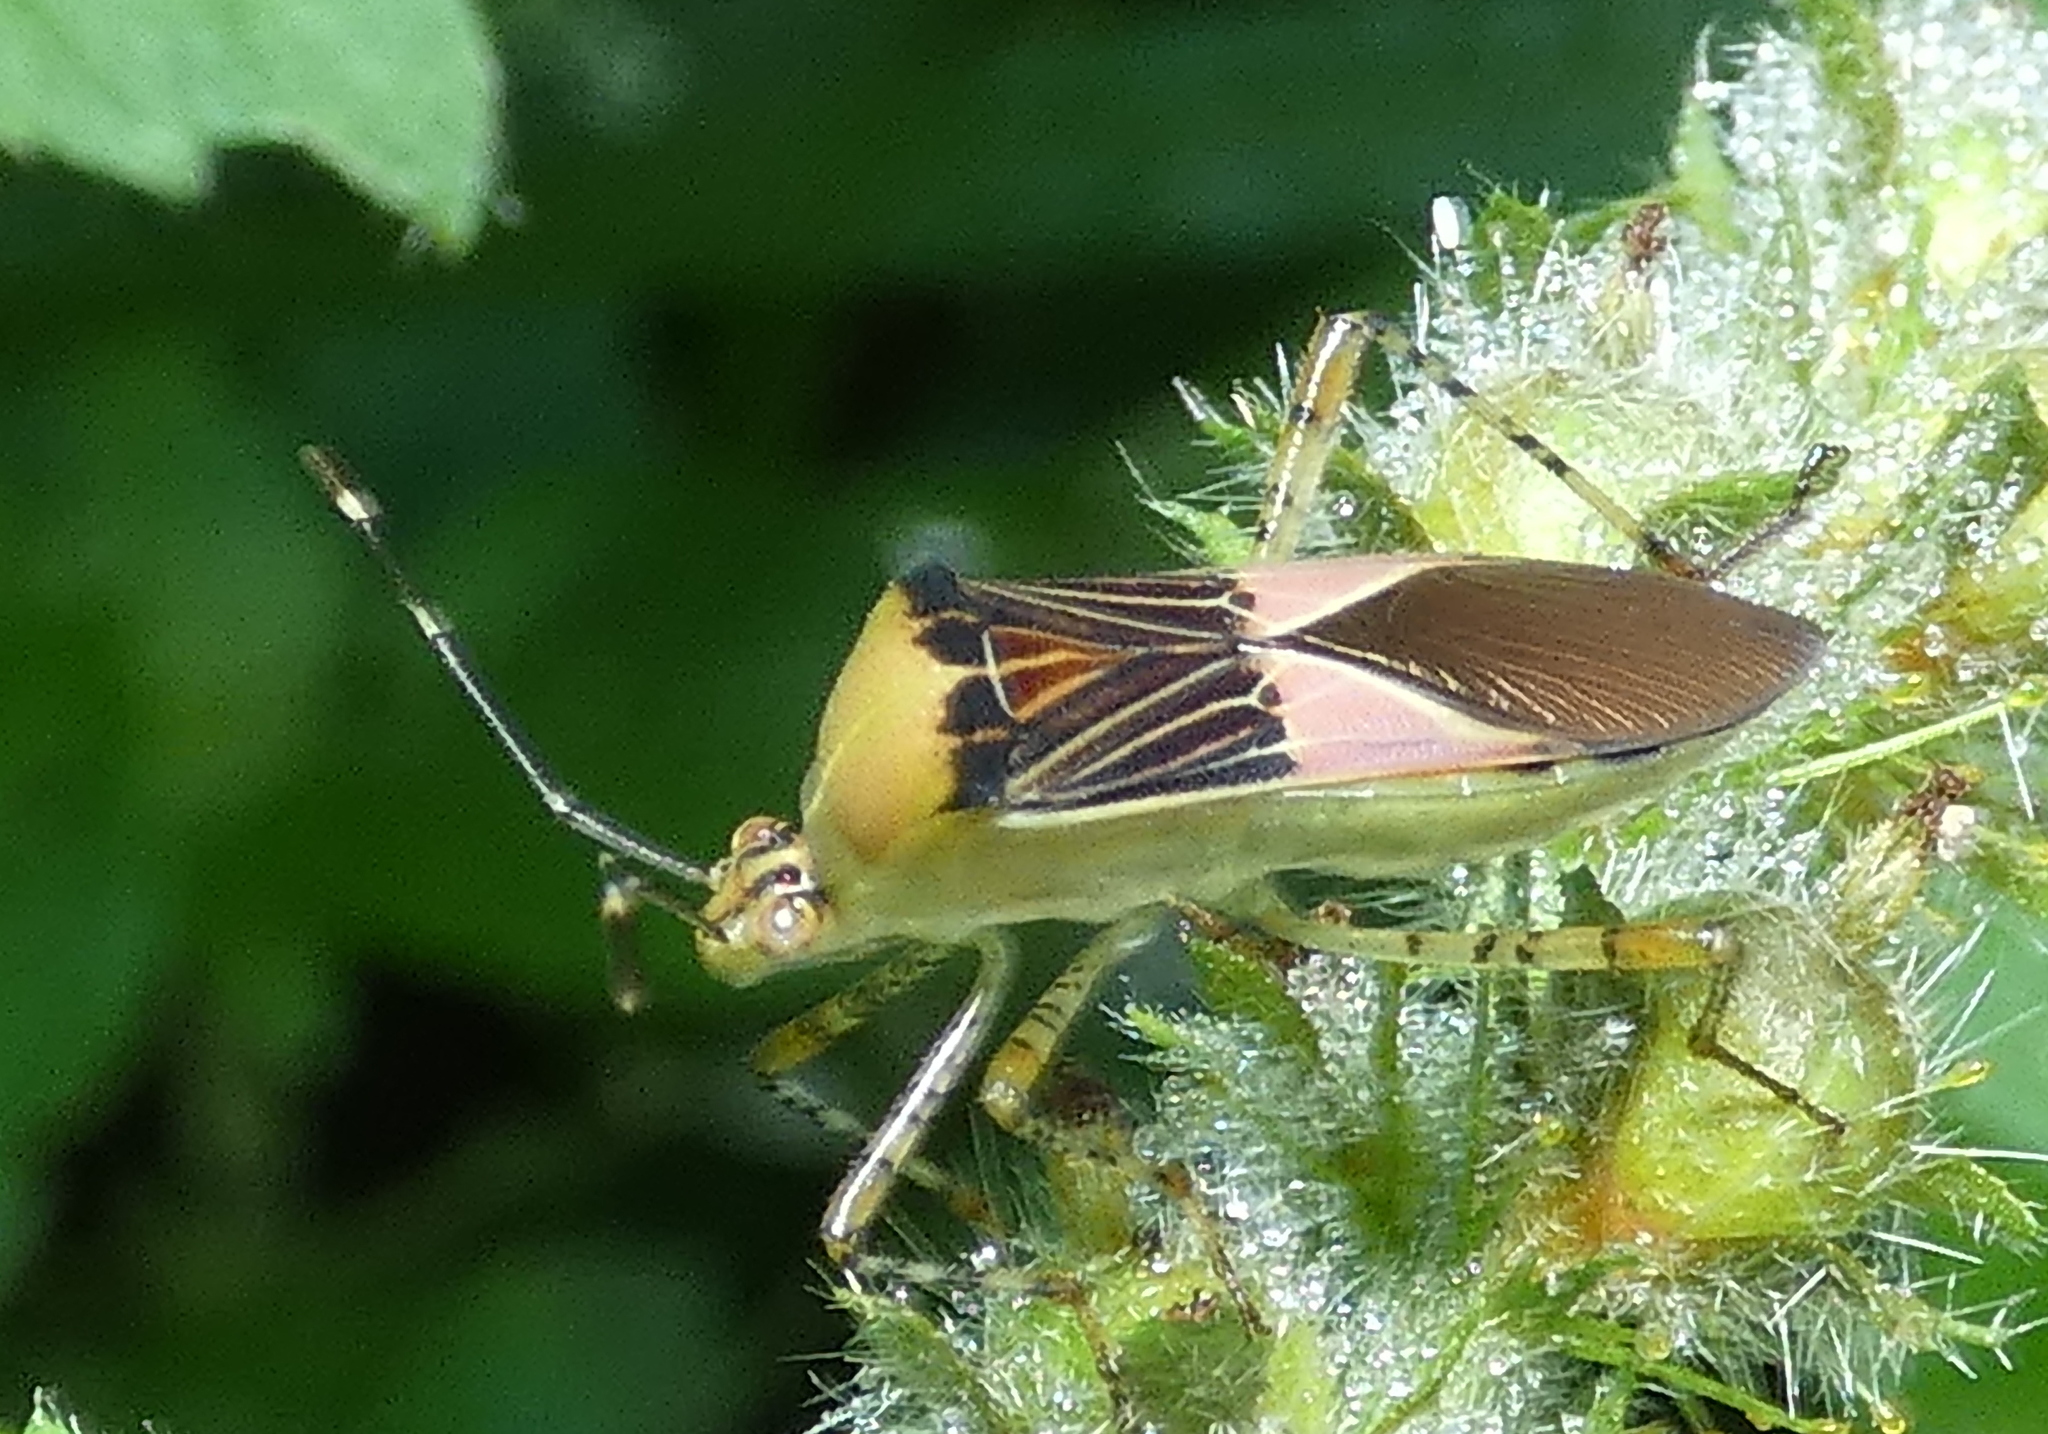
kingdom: Animalia
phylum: Arthropoda
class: Insecta
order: Hemiptera
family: Coreidae
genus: Hypselonotus
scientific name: Hypselonotus fulvus
